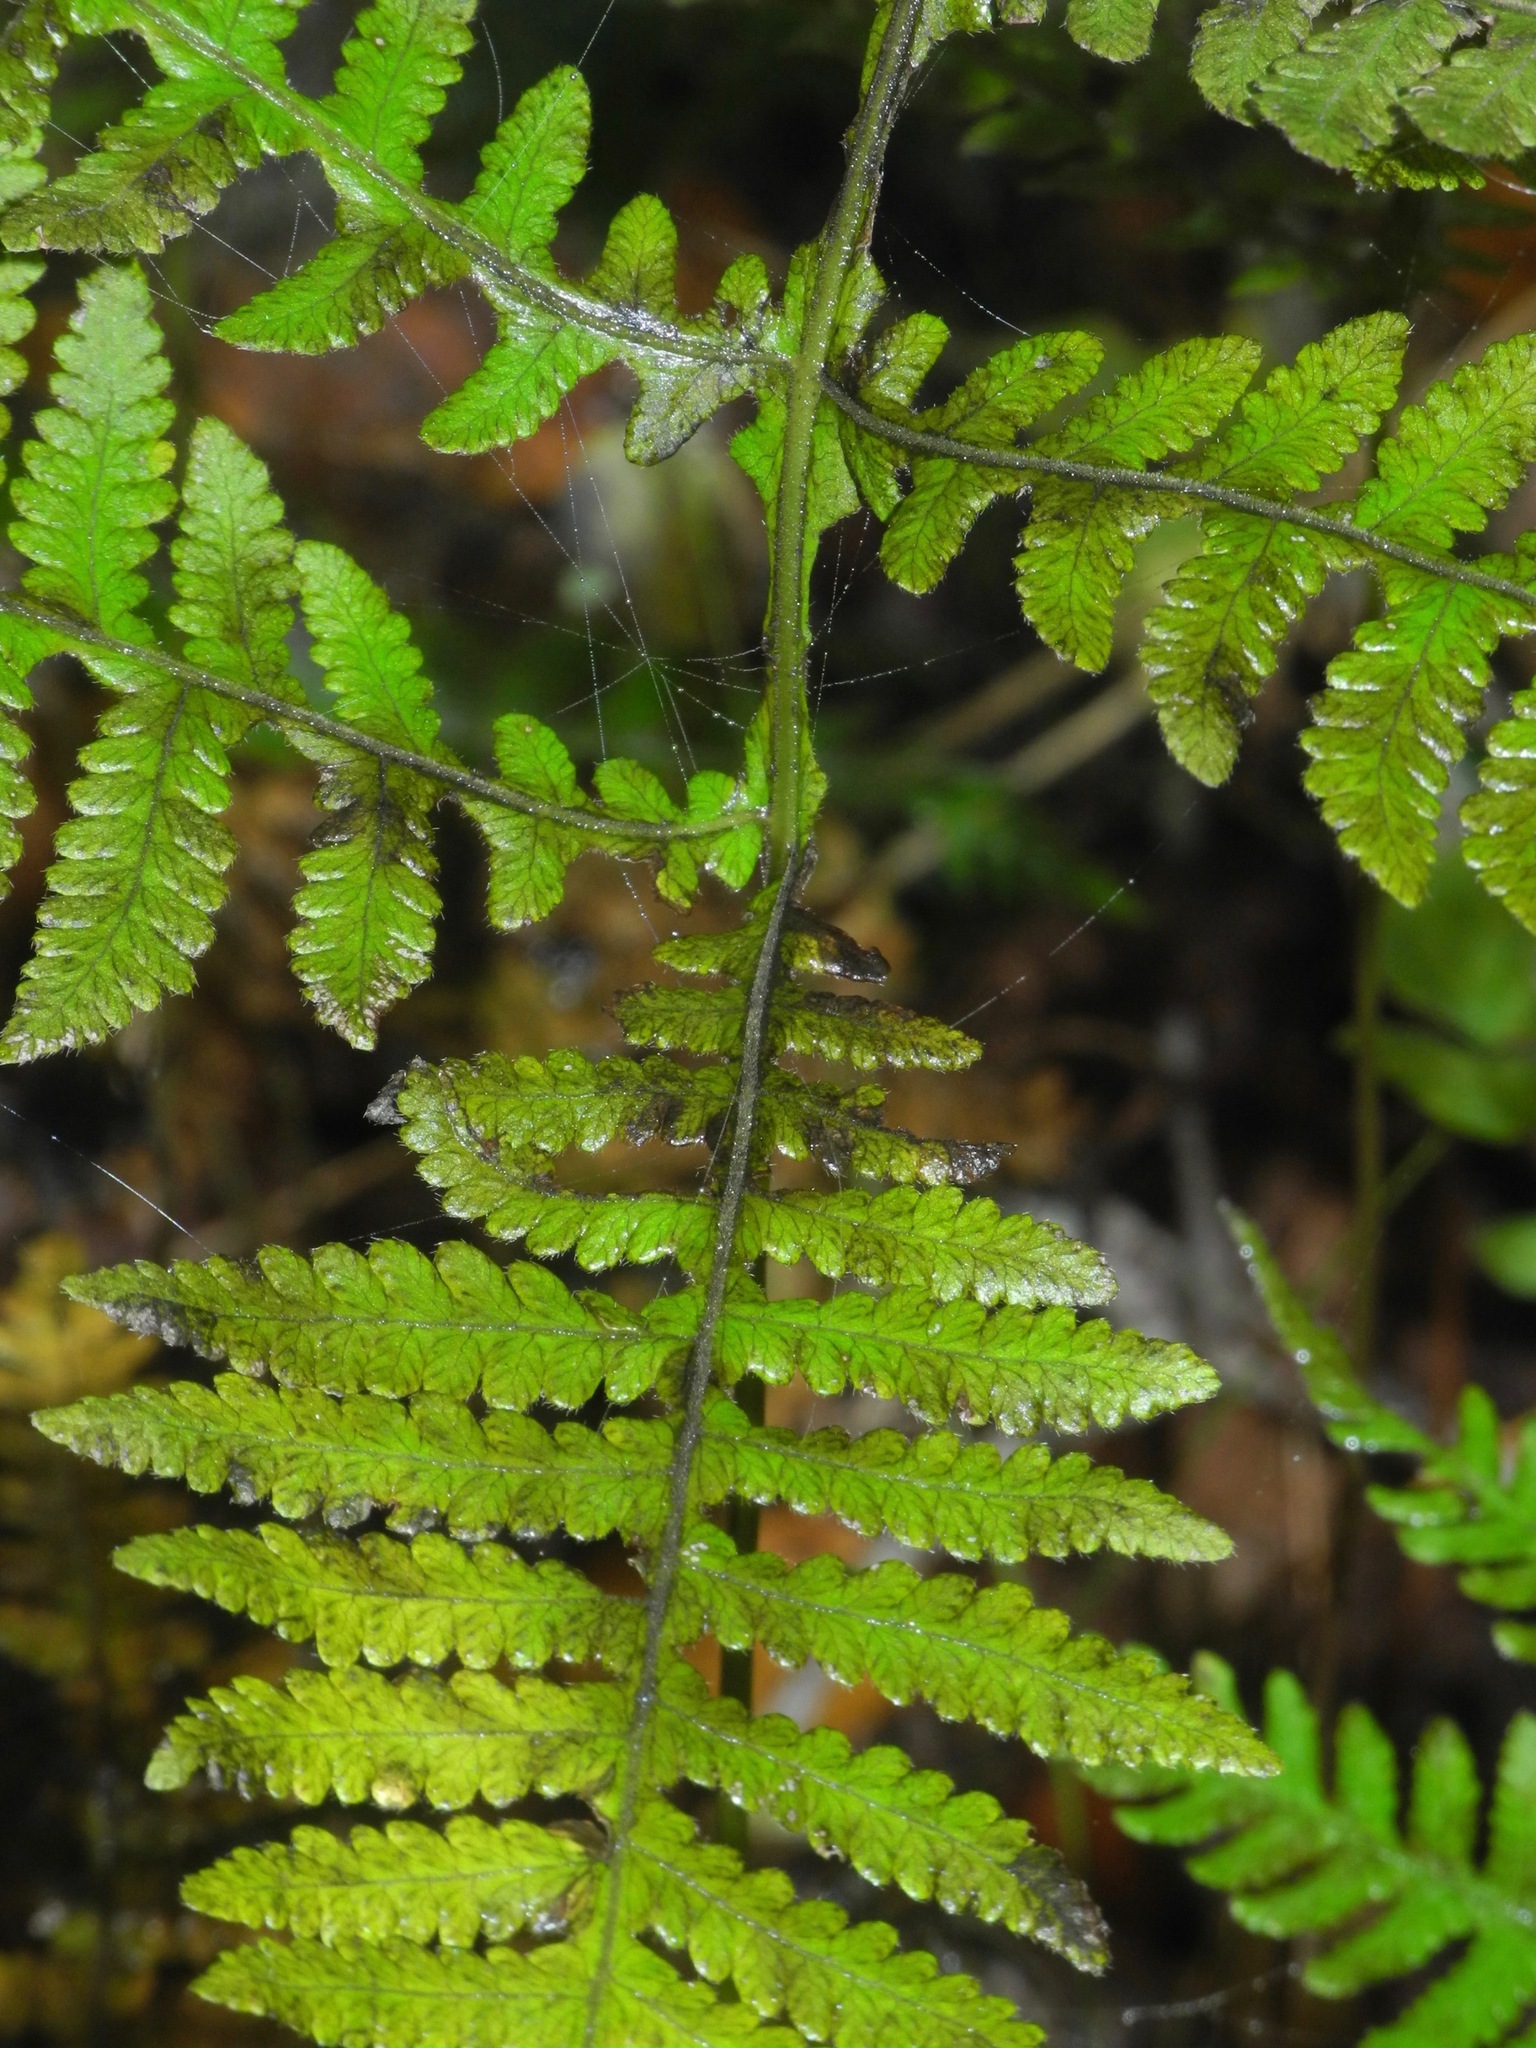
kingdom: Plantae
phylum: Tracheophyta
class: Polypodiopsida
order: Polypodiales
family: Thelypteridaceae
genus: Phegopteris
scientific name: Phegopteris hexagonoptera
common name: Broad beech fern
